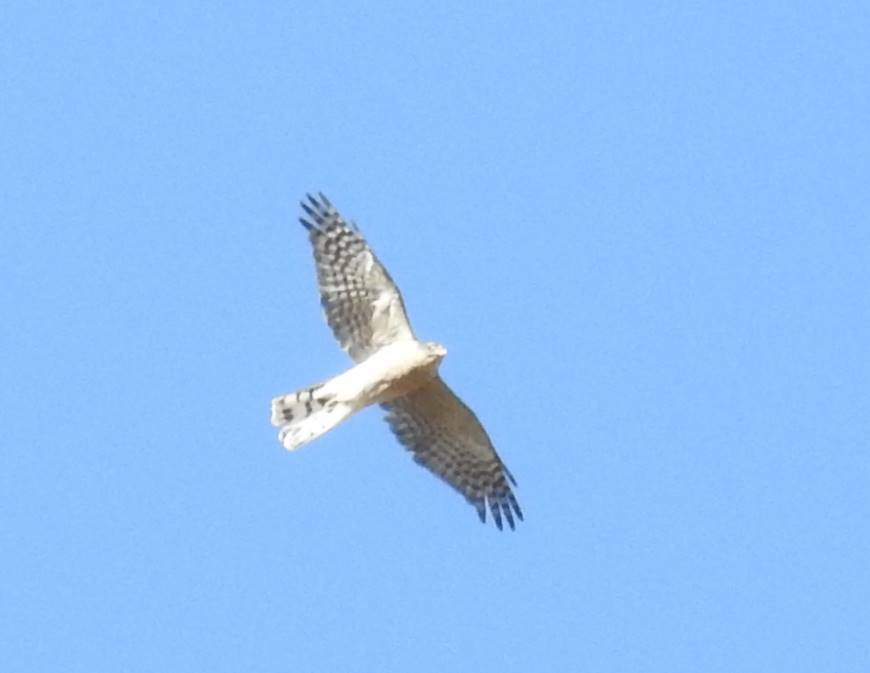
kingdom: Animalia
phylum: Chordata
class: Aves
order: Accipitriformes
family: Accipitridae
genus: Accipiter
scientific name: Accipiter nisus
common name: Eurasian sparrowhawk
